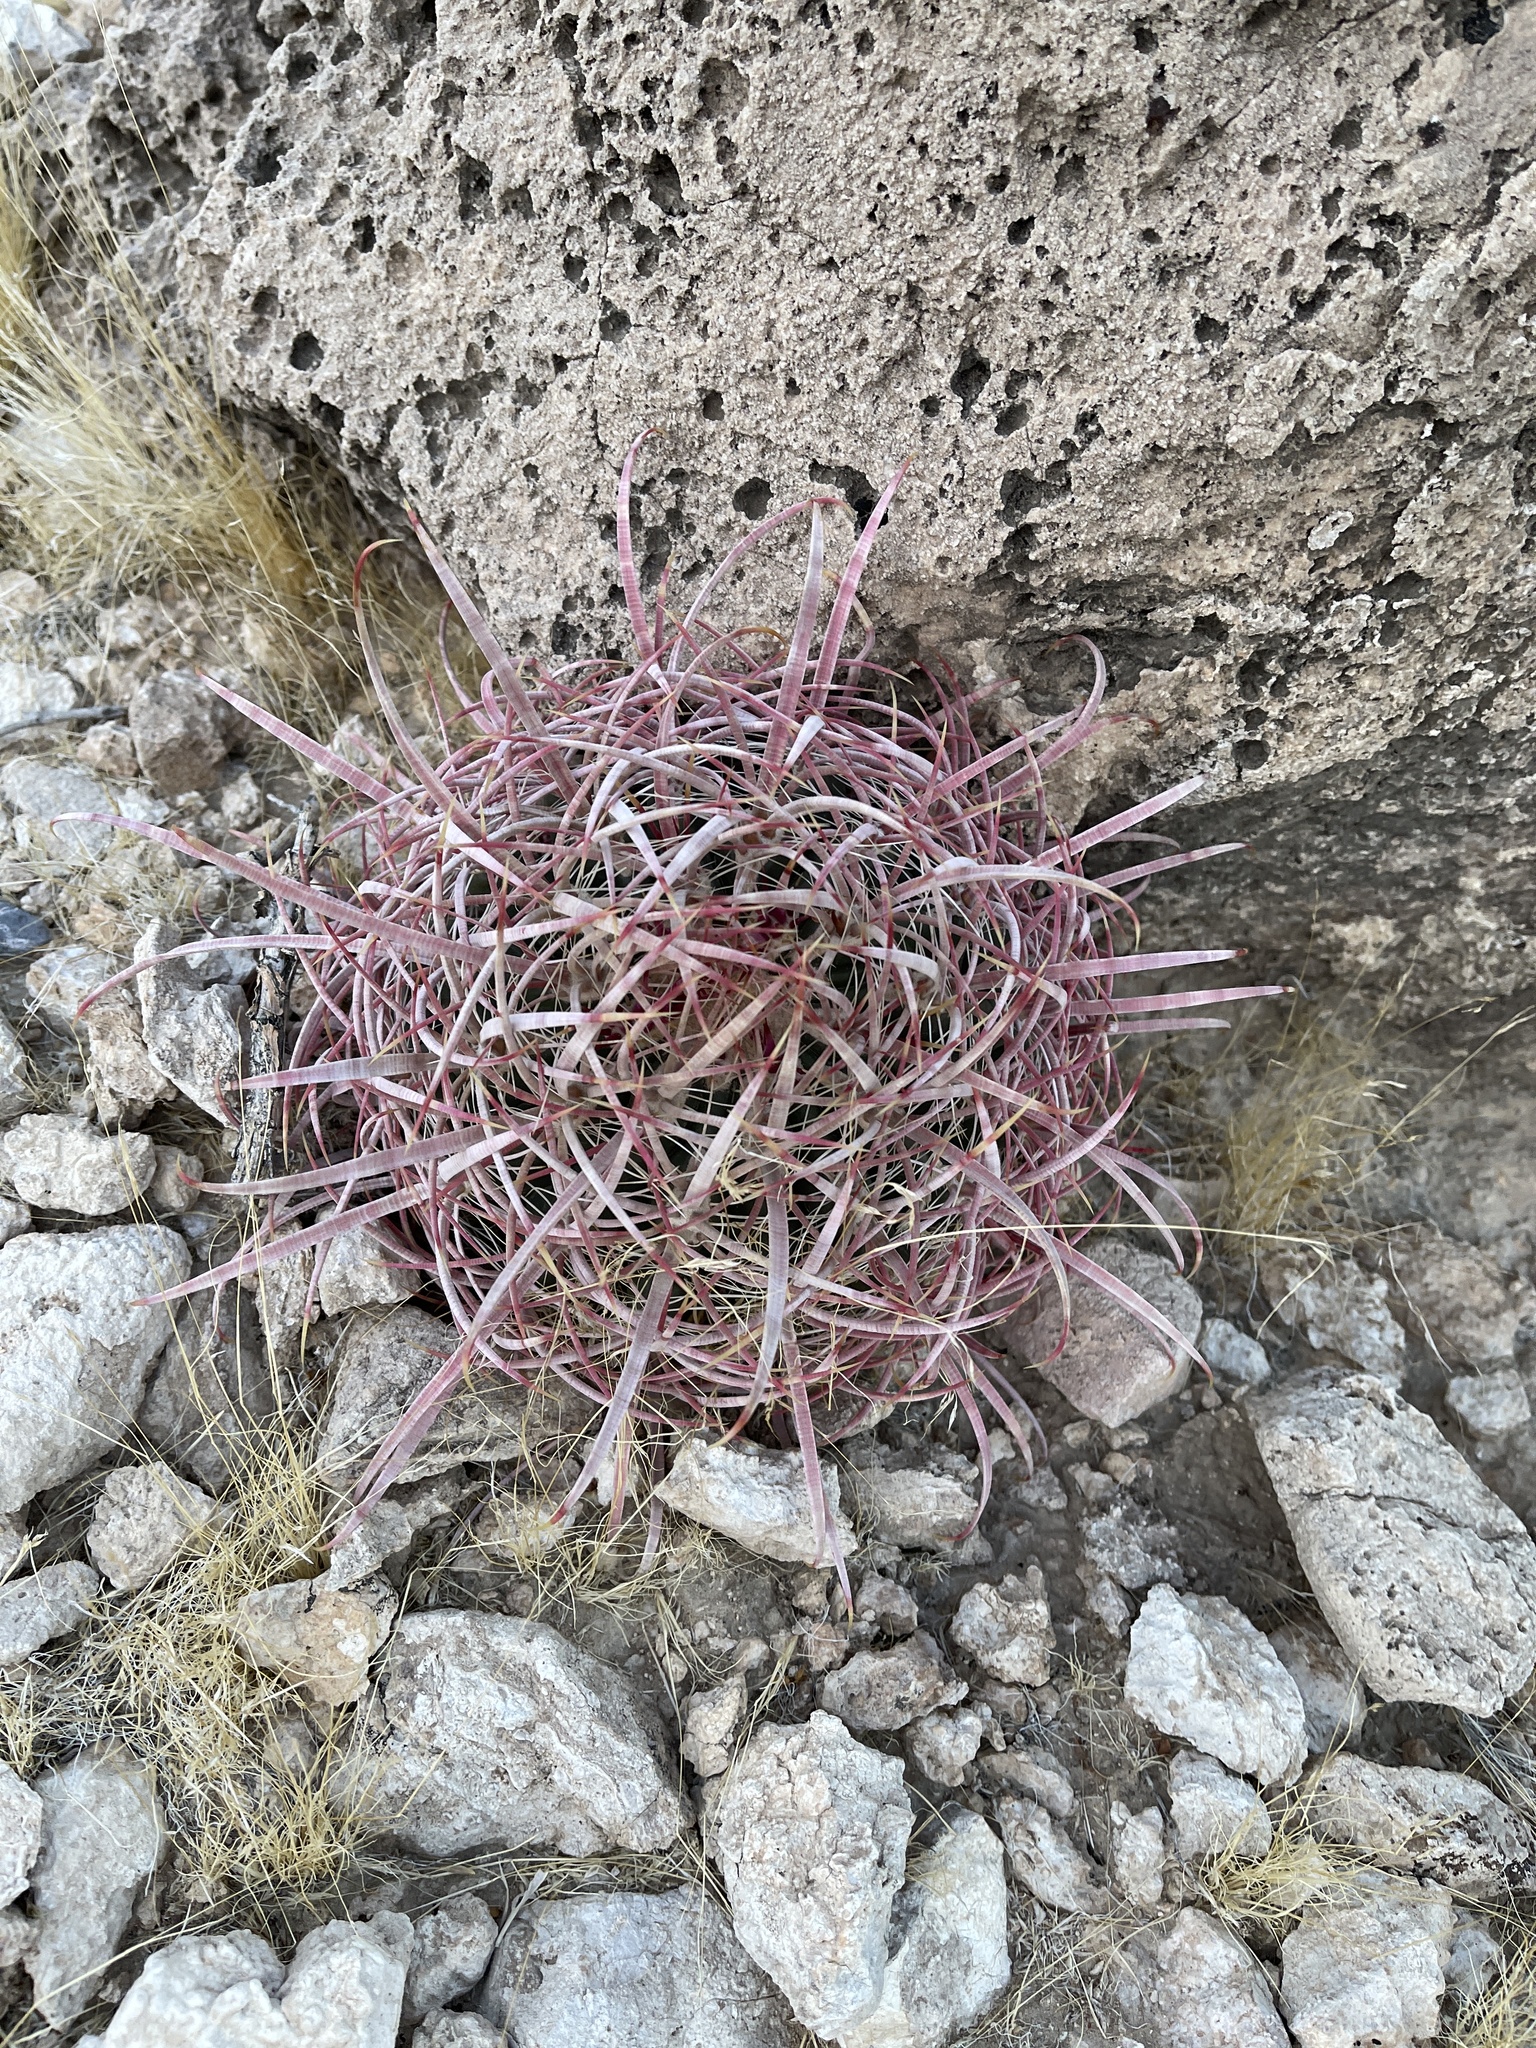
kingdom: Plantae
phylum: Tracheophyta
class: Magnoliopsida
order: Caryophyllales
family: Cactaceae
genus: Ferocactus
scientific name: Ferocactus cylindraceus
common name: California barrel cactus
